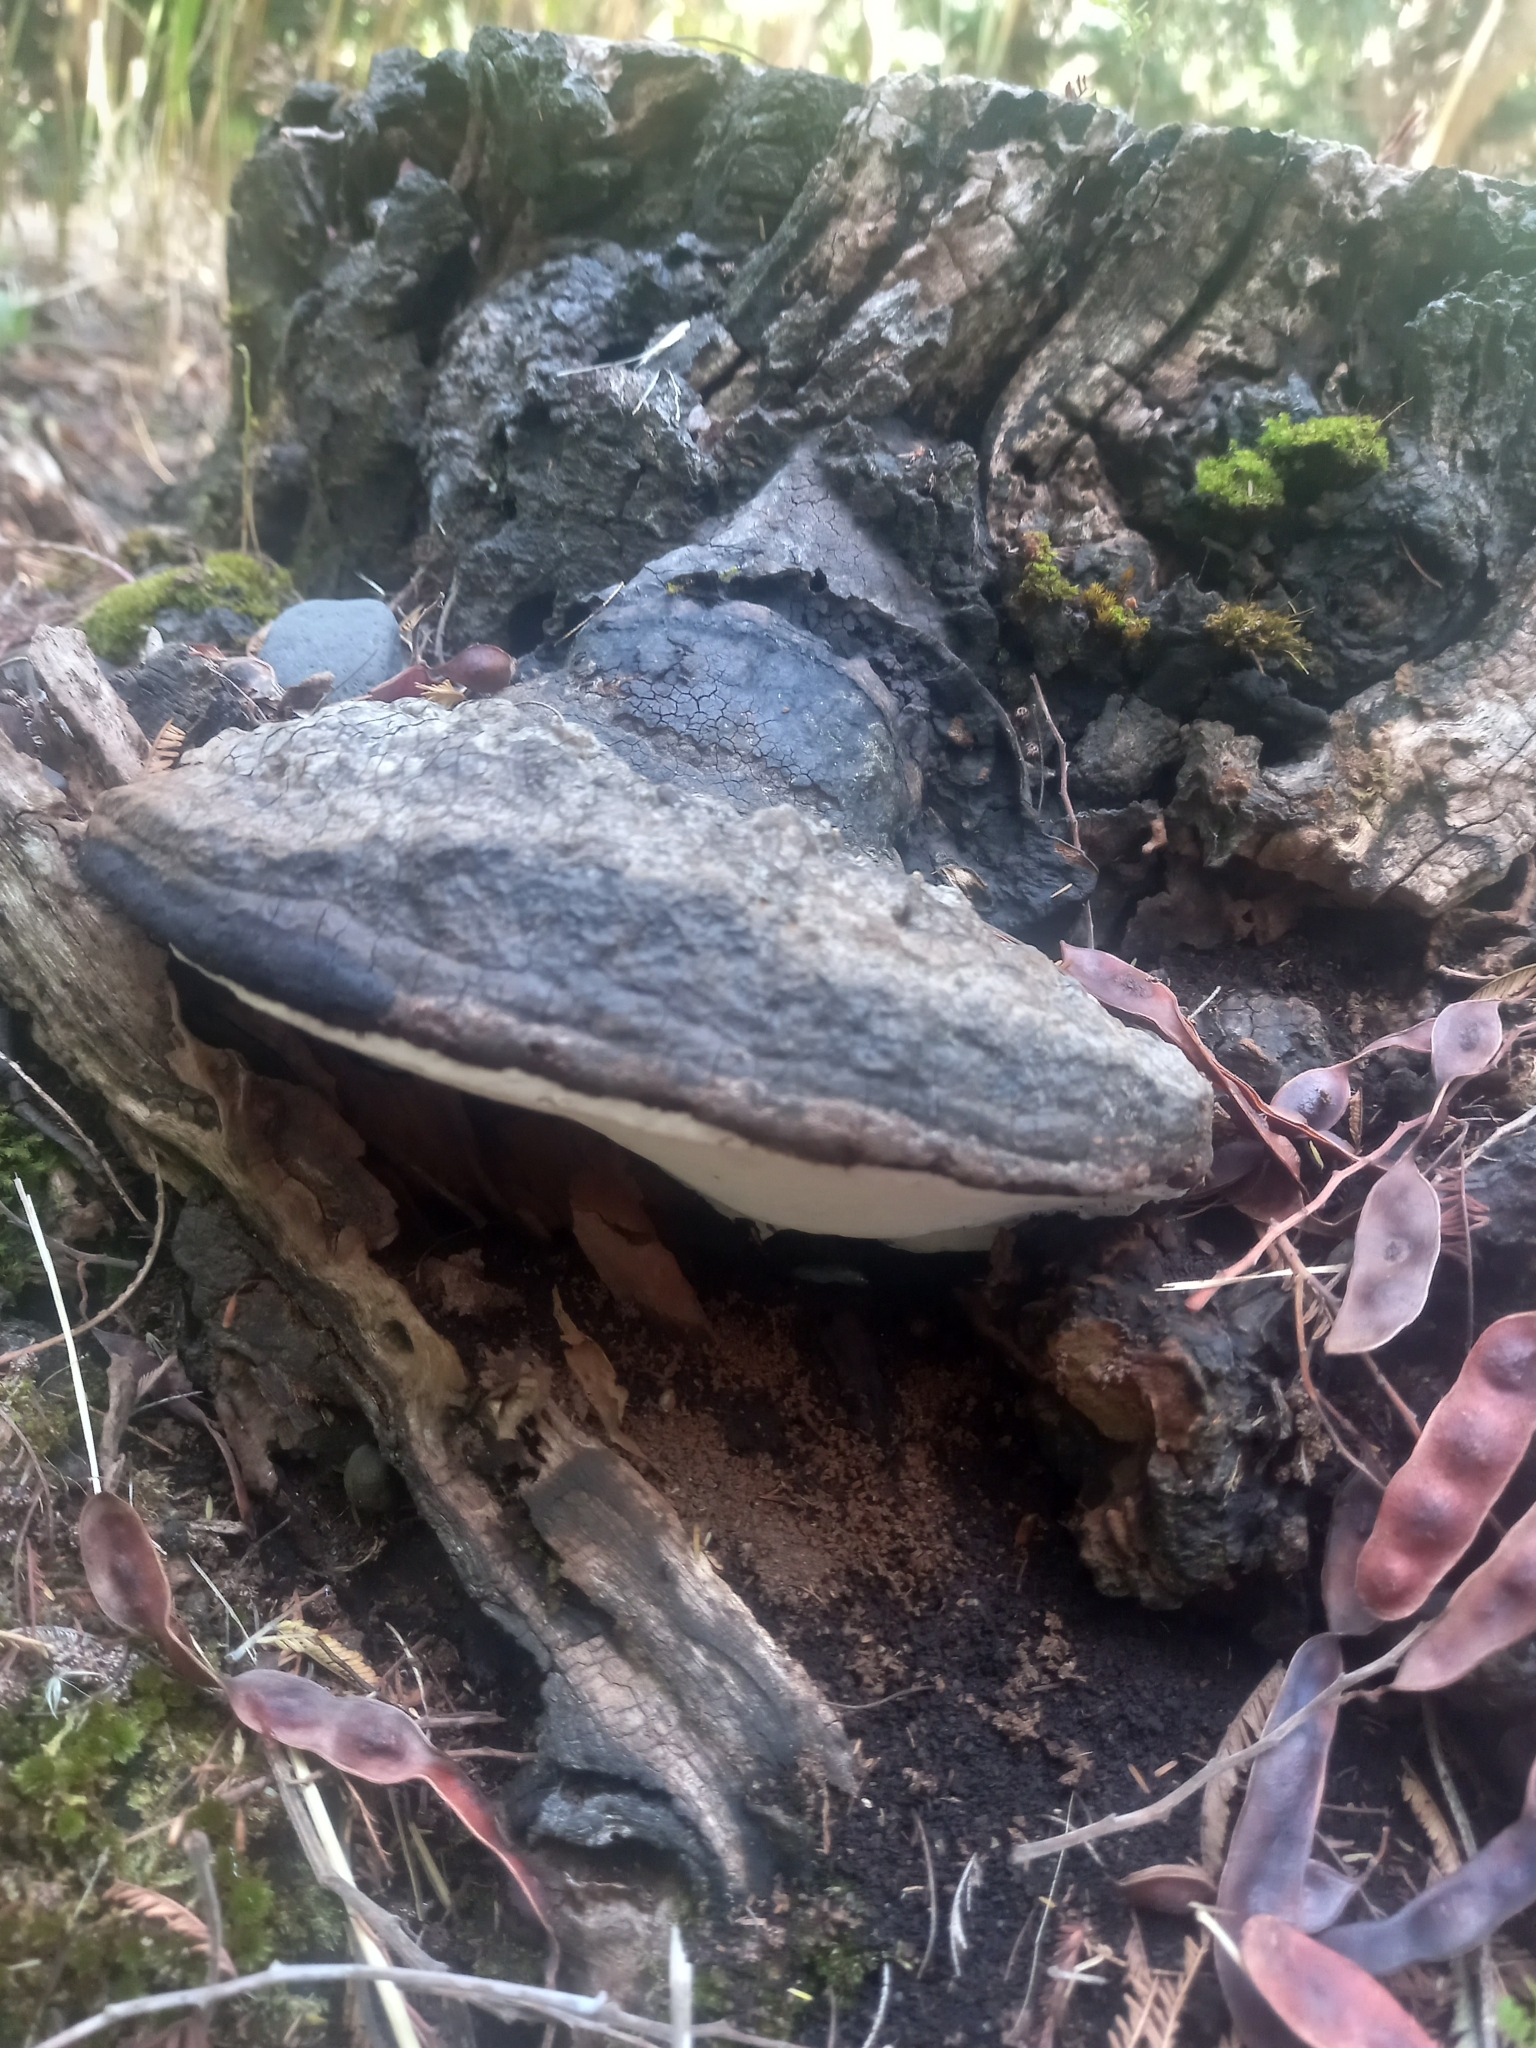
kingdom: Fungi
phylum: Basidiomycota
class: Agaricomycetes
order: Polyporales
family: Polyporaceae
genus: Ganoderma
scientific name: Ganoderma australe
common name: Southern bracket
